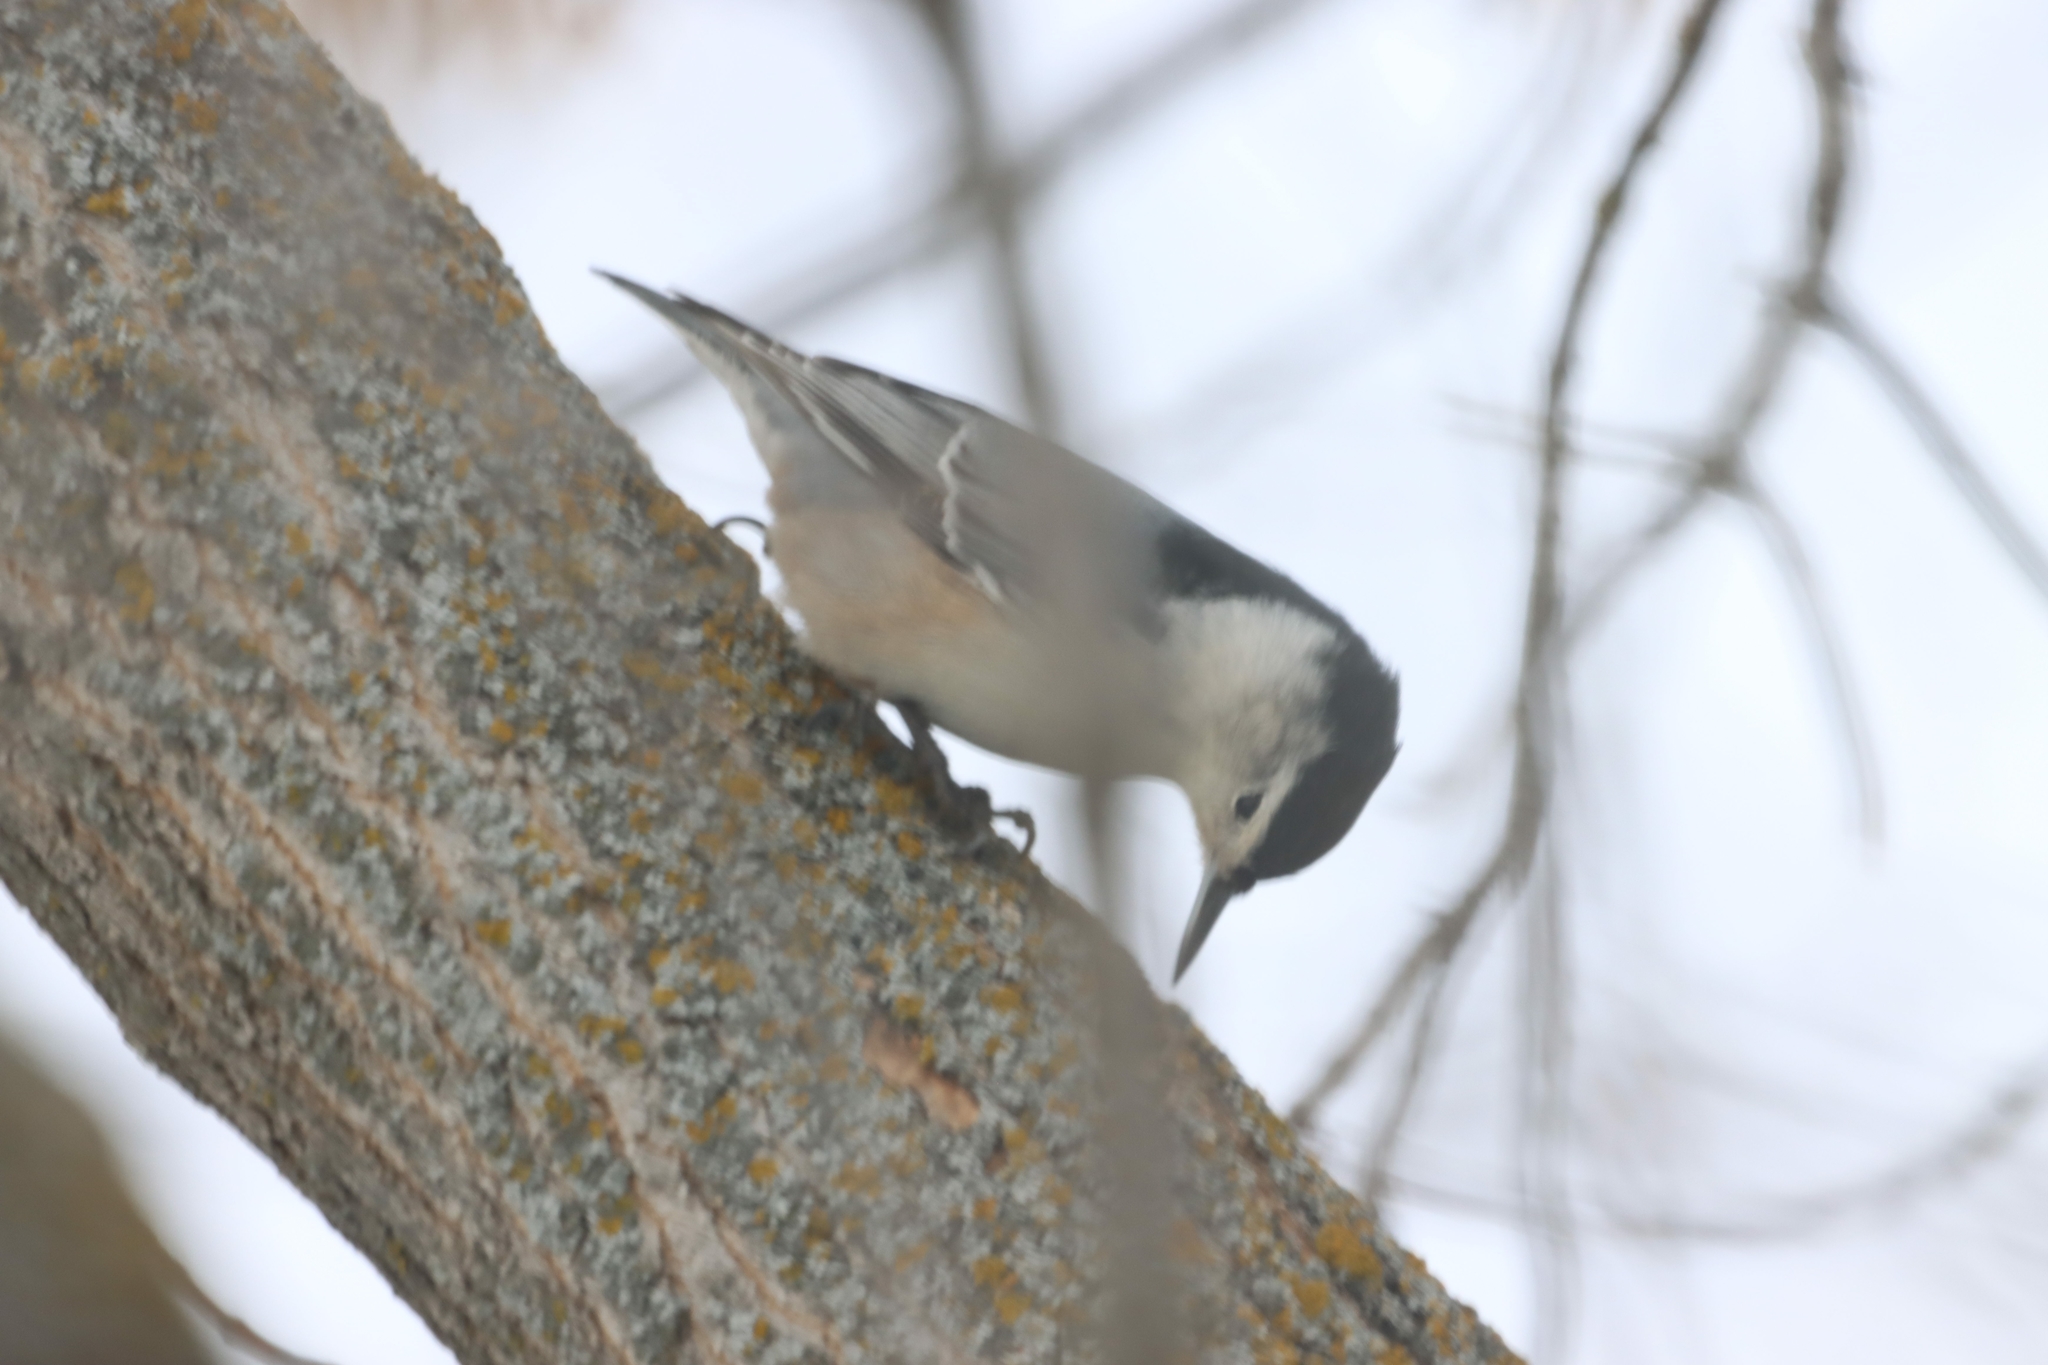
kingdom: Animalia
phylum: Chordata
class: Aves
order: Passeriformes
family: Sittidae
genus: Sitta
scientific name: Sitta carolinensis
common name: White-breasted nuthatch
